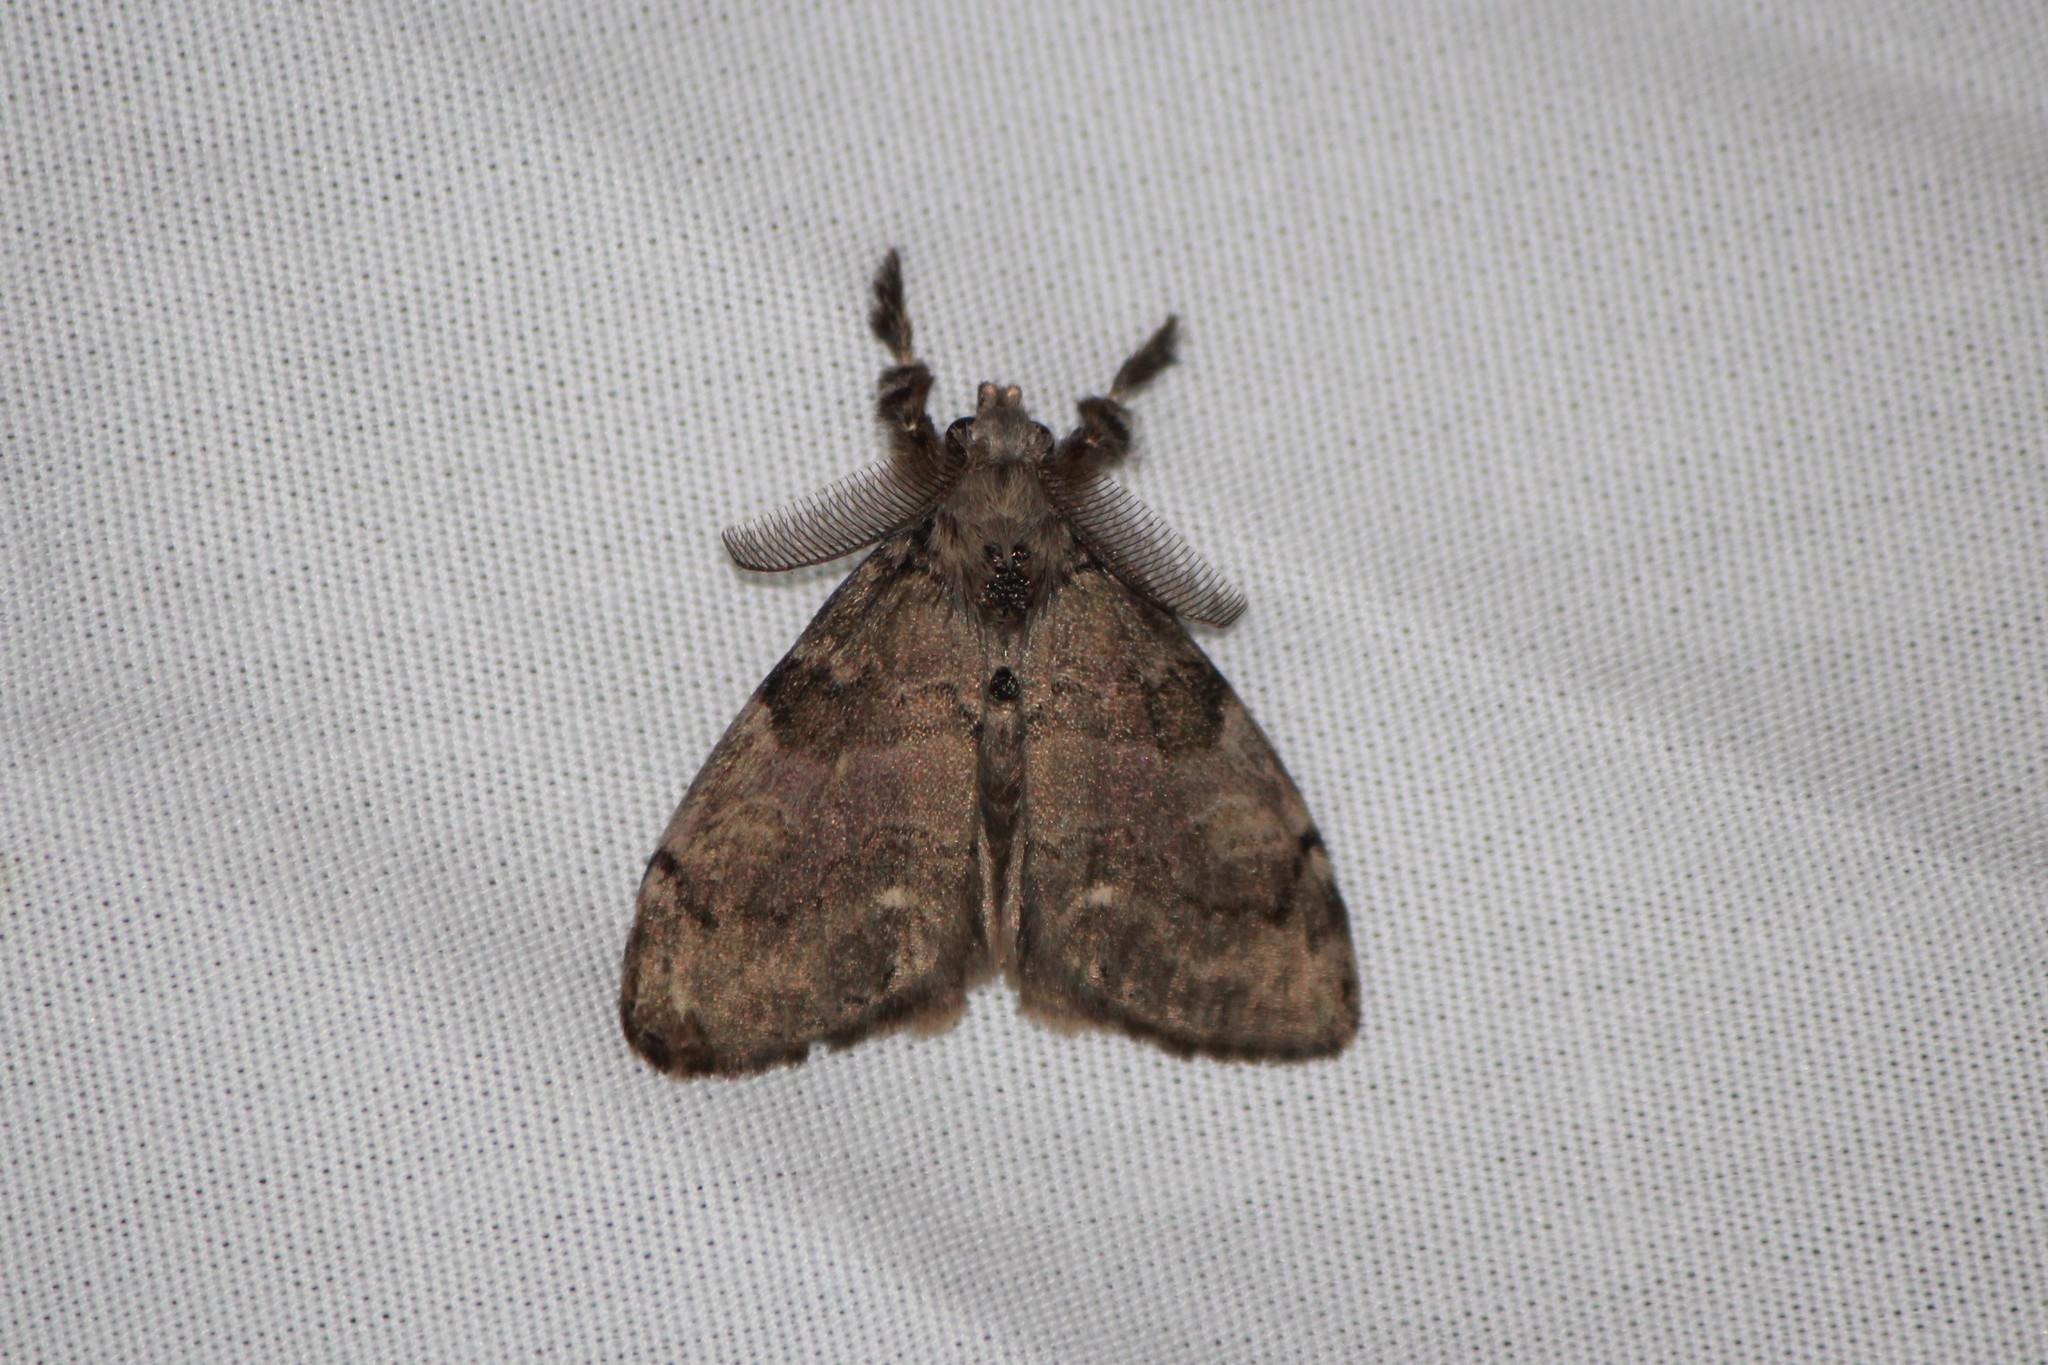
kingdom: Animalia
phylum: Arthropoda
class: Insecta
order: Lepidoptera
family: Erebidae
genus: Orgyia
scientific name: Orgyia leucostigma
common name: White-marked tussock moth
